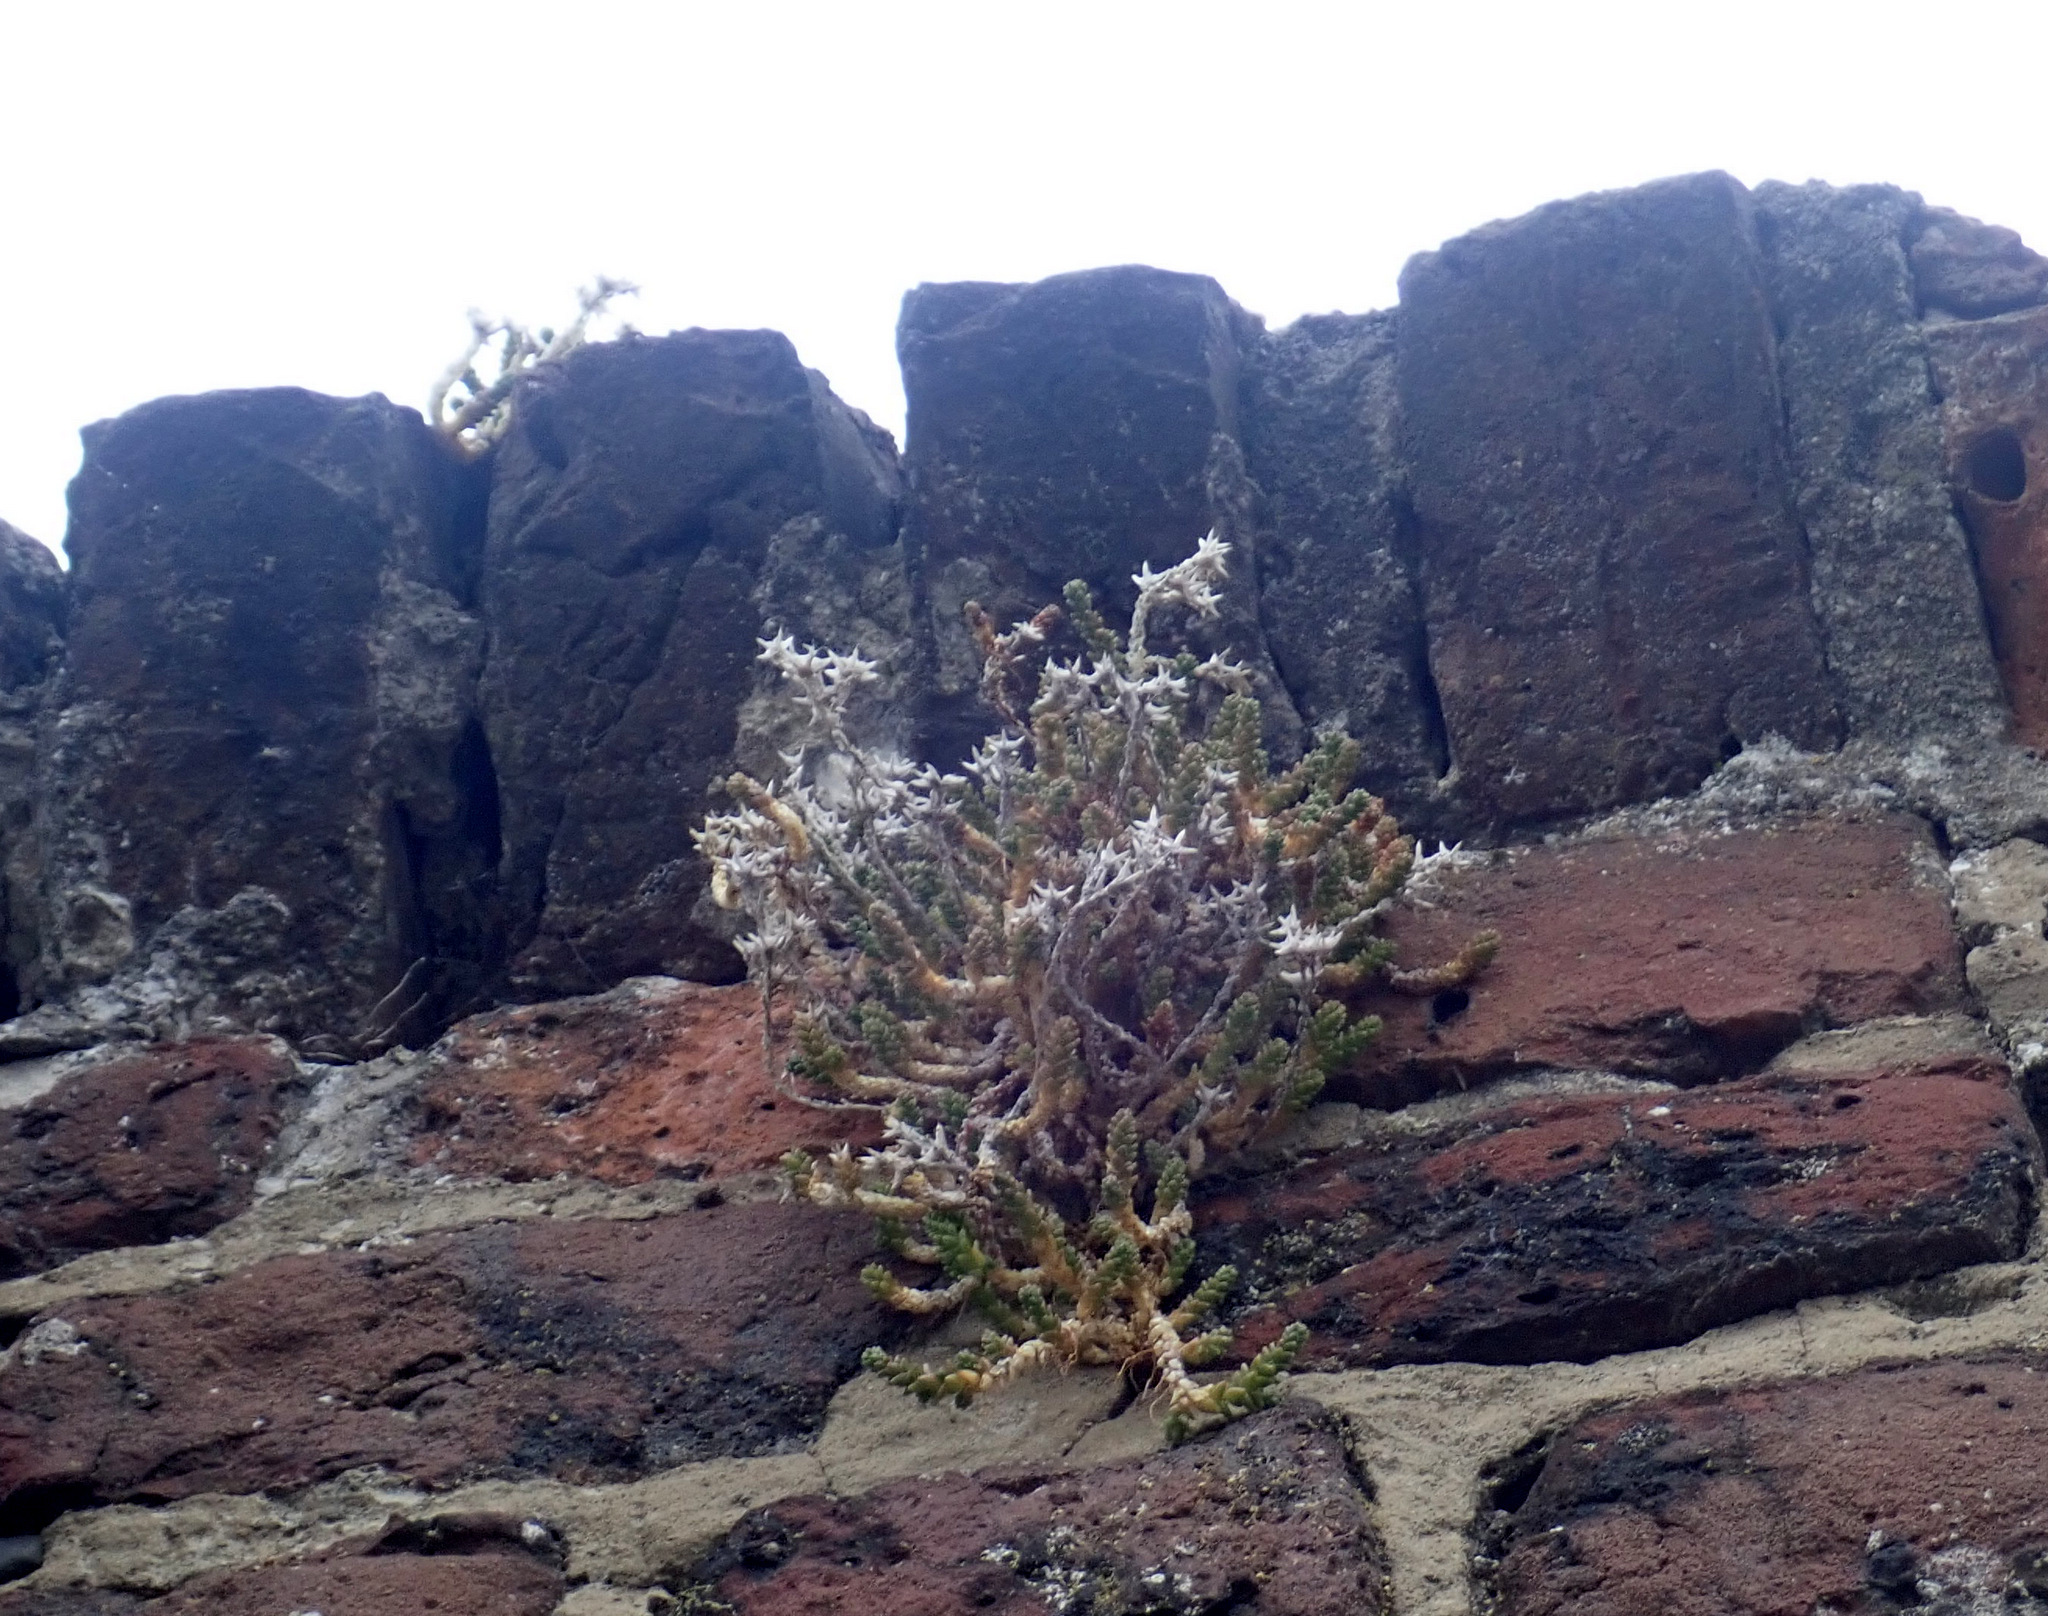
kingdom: Plantae
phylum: Tracheophyta
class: Magnoliopsida
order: Saxifragales
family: Crassulaceae
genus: Sedum
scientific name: Sedum acre
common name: Biting stonecrop
